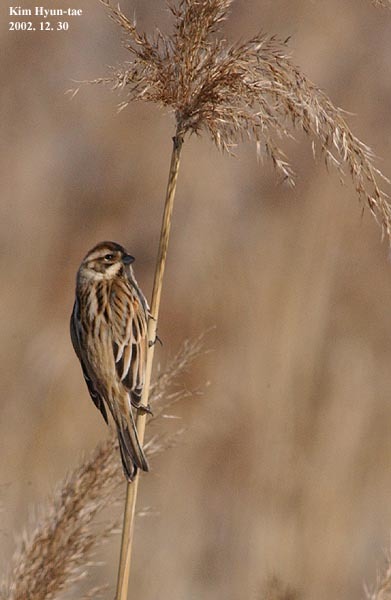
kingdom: Animalia
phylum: Chordata
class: Aves
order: Passeriformes
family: Emberizidae
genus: Emberiza
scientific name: Emberiza schoeniclus
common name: Reed bunting
